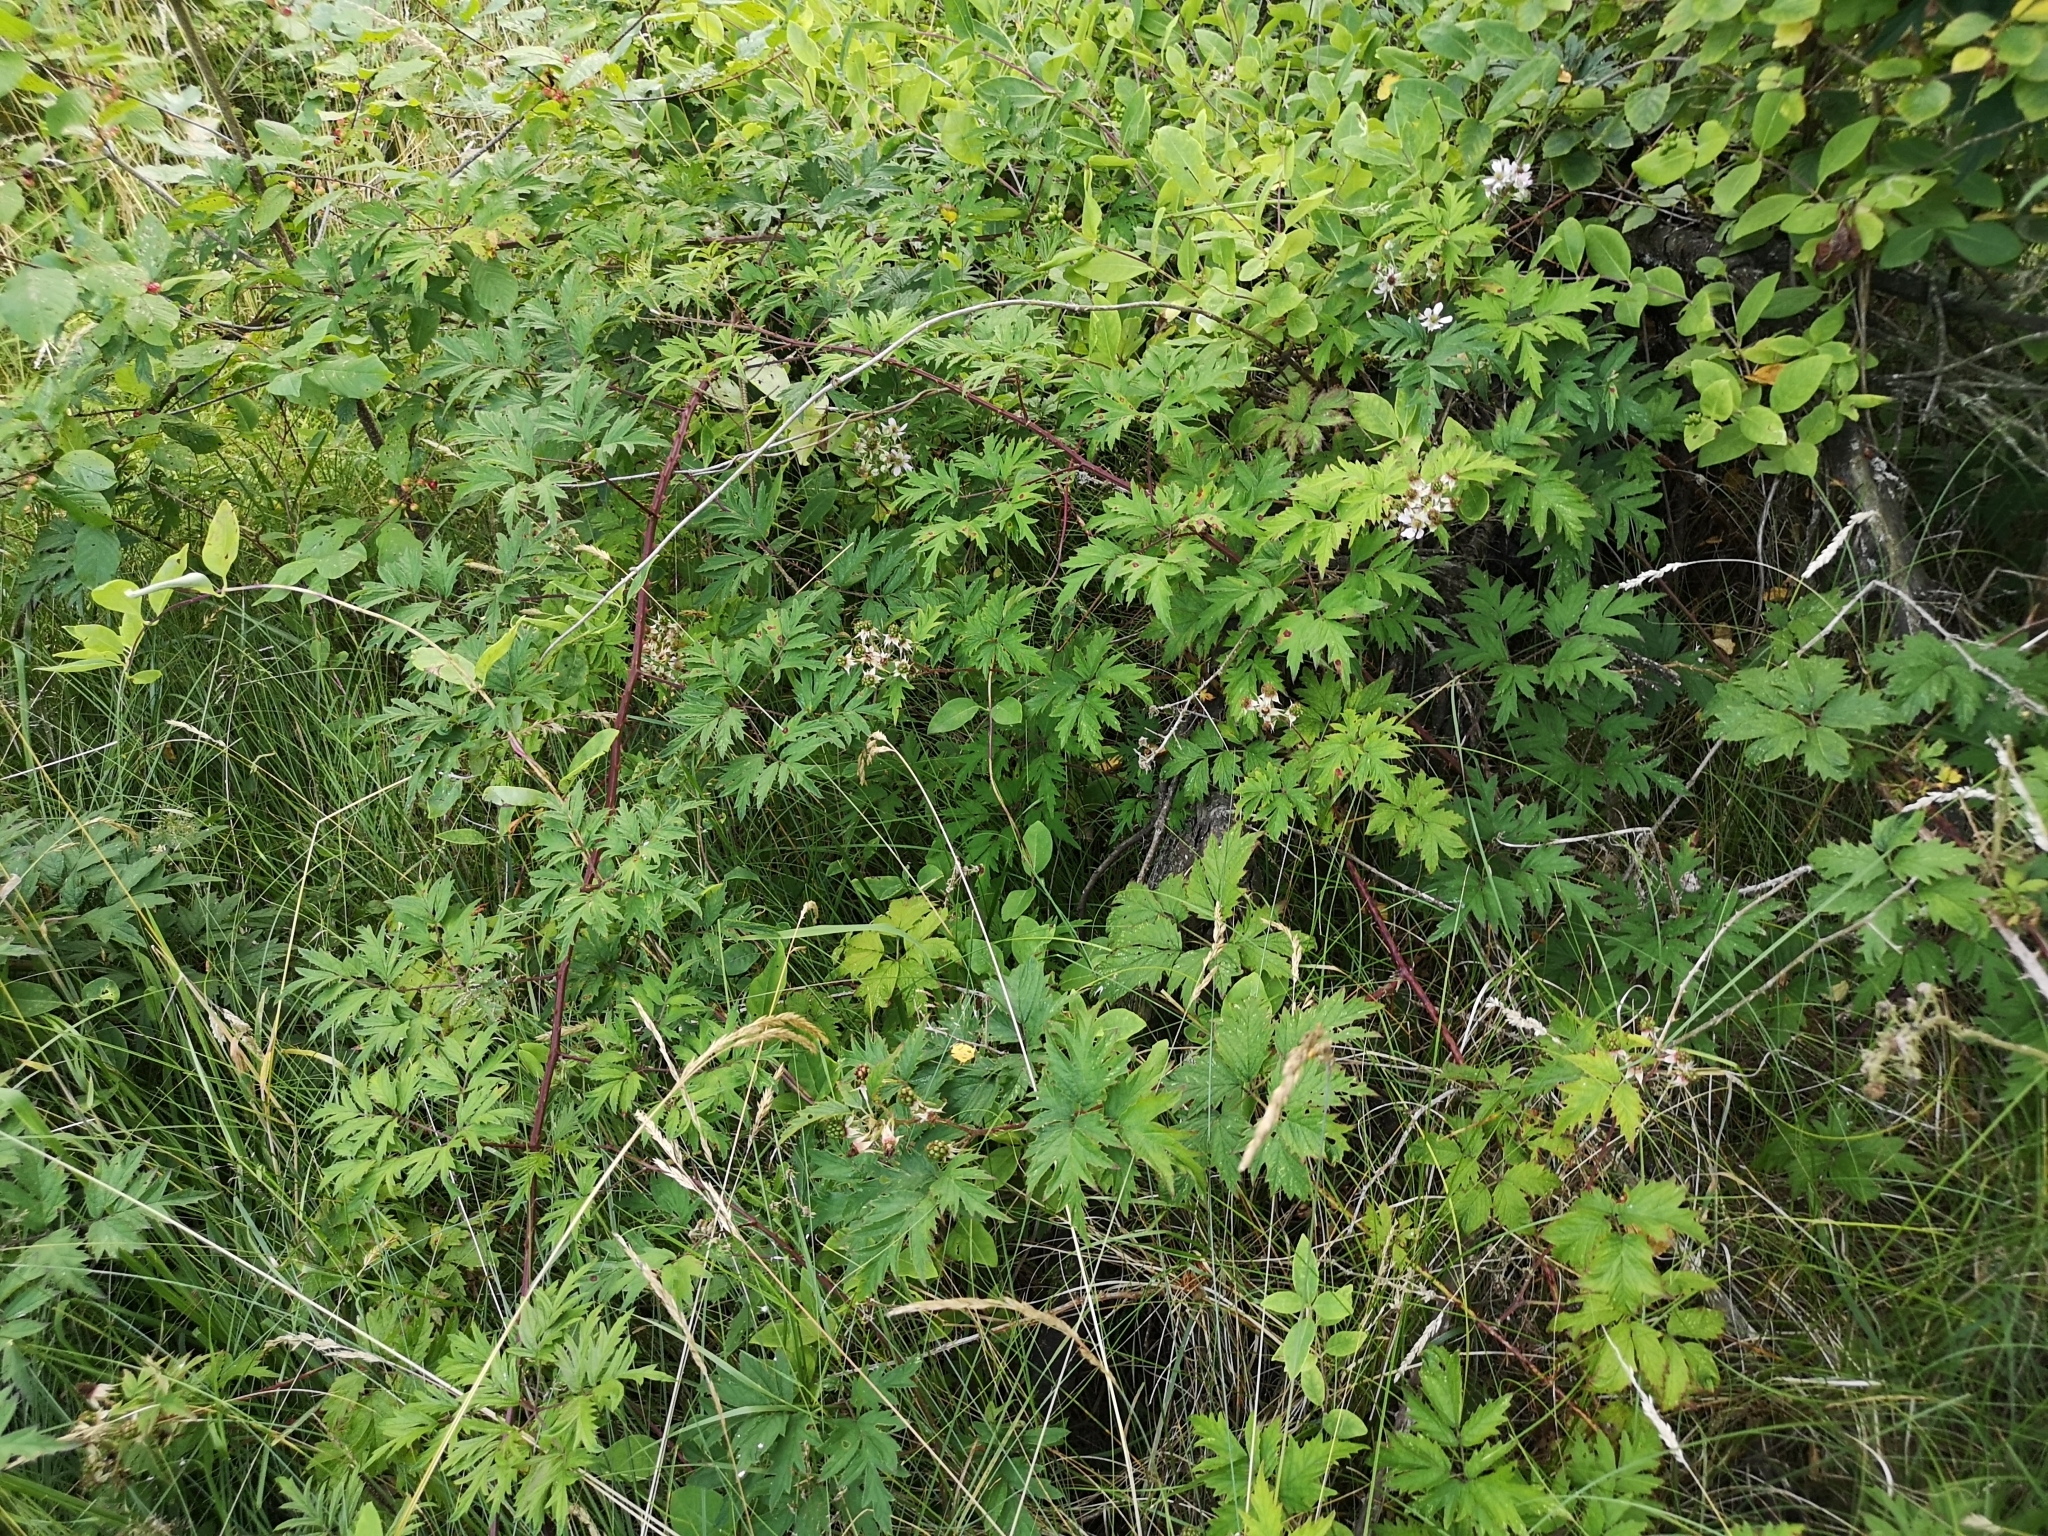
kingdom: Plantae
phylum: Tracheophyta
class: Magnoliopsida
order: Rosales
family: Rosaceae
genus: Rubus
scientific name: Rubus laciniatus
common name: Evergreen blackberry
